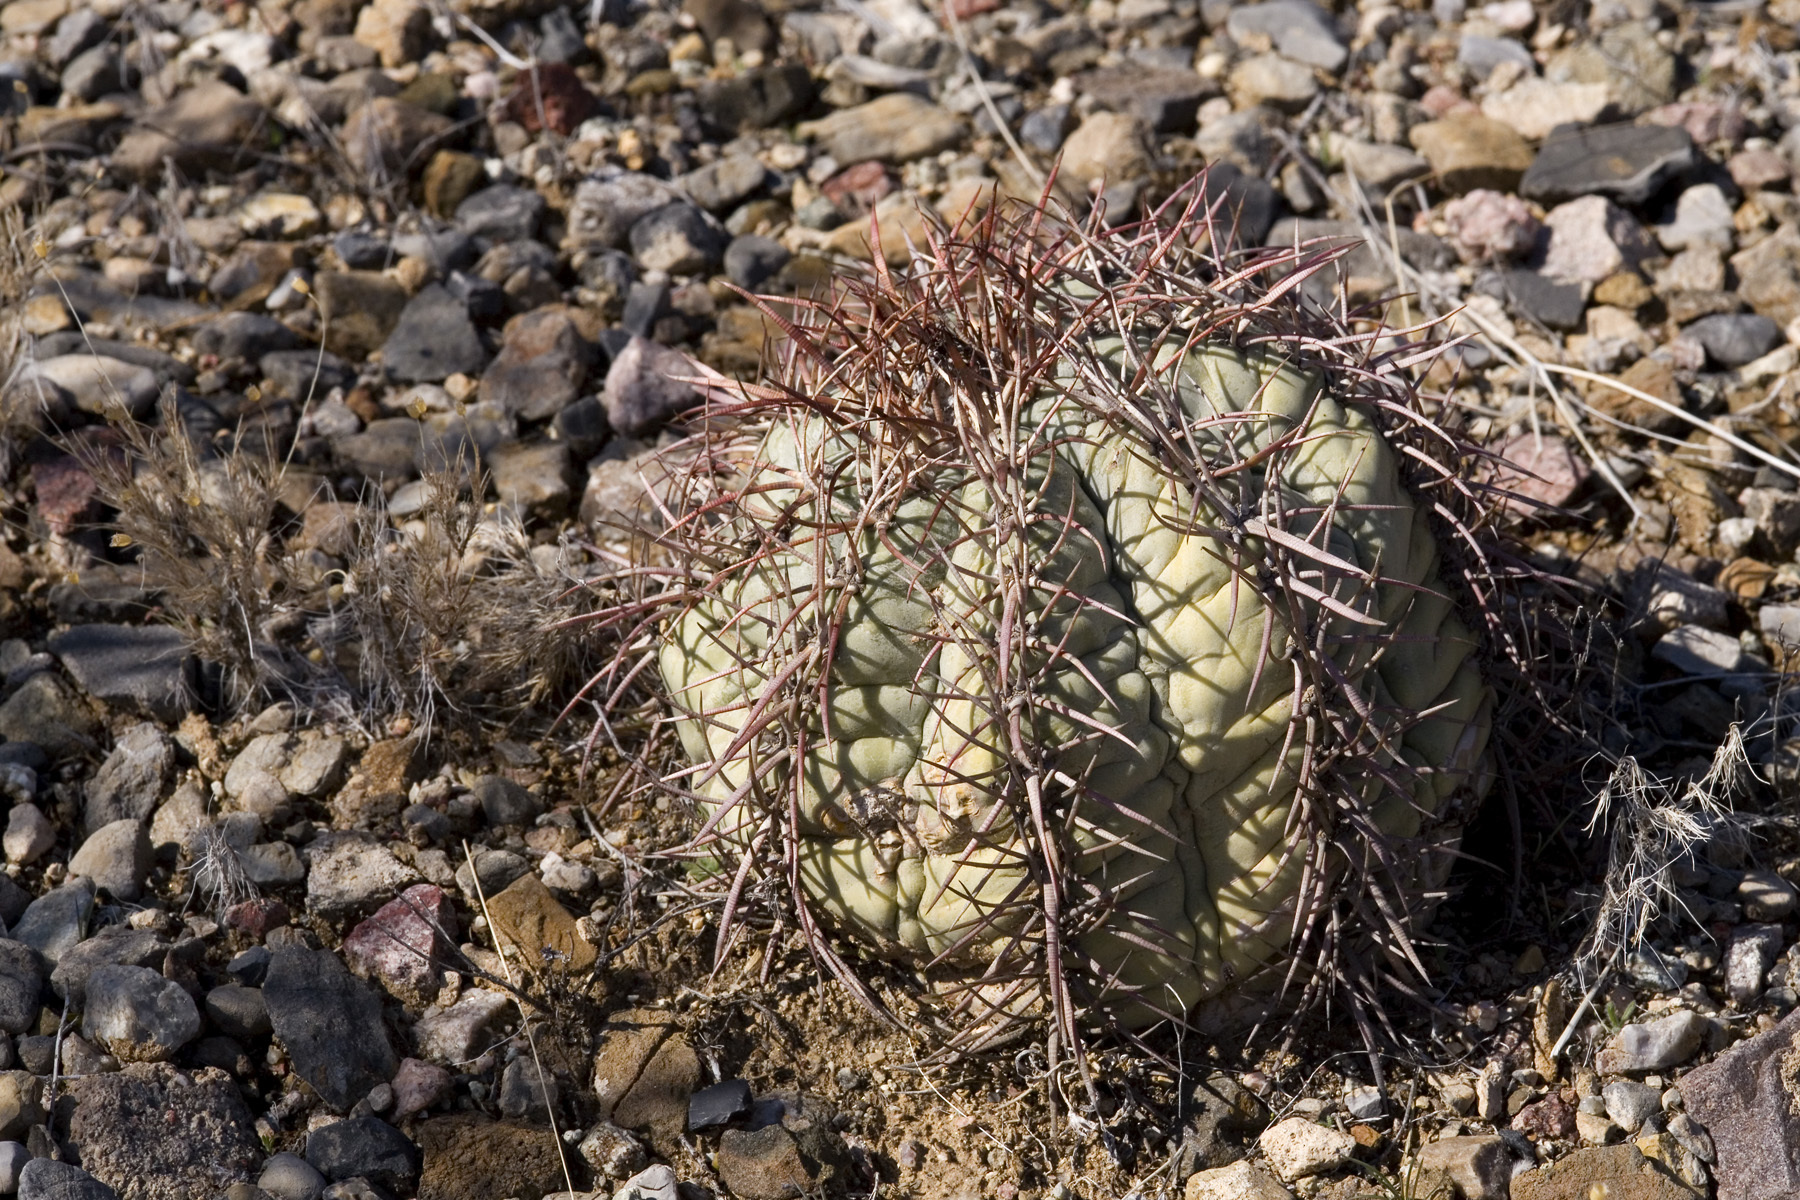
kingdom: Plantae
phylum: Tracheophyta
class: Magnoliopsida
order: Caryophyllales
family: Cactaceae
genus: Echinocactus
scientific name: Echinocactus horizonthalonius
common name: Devilshead
